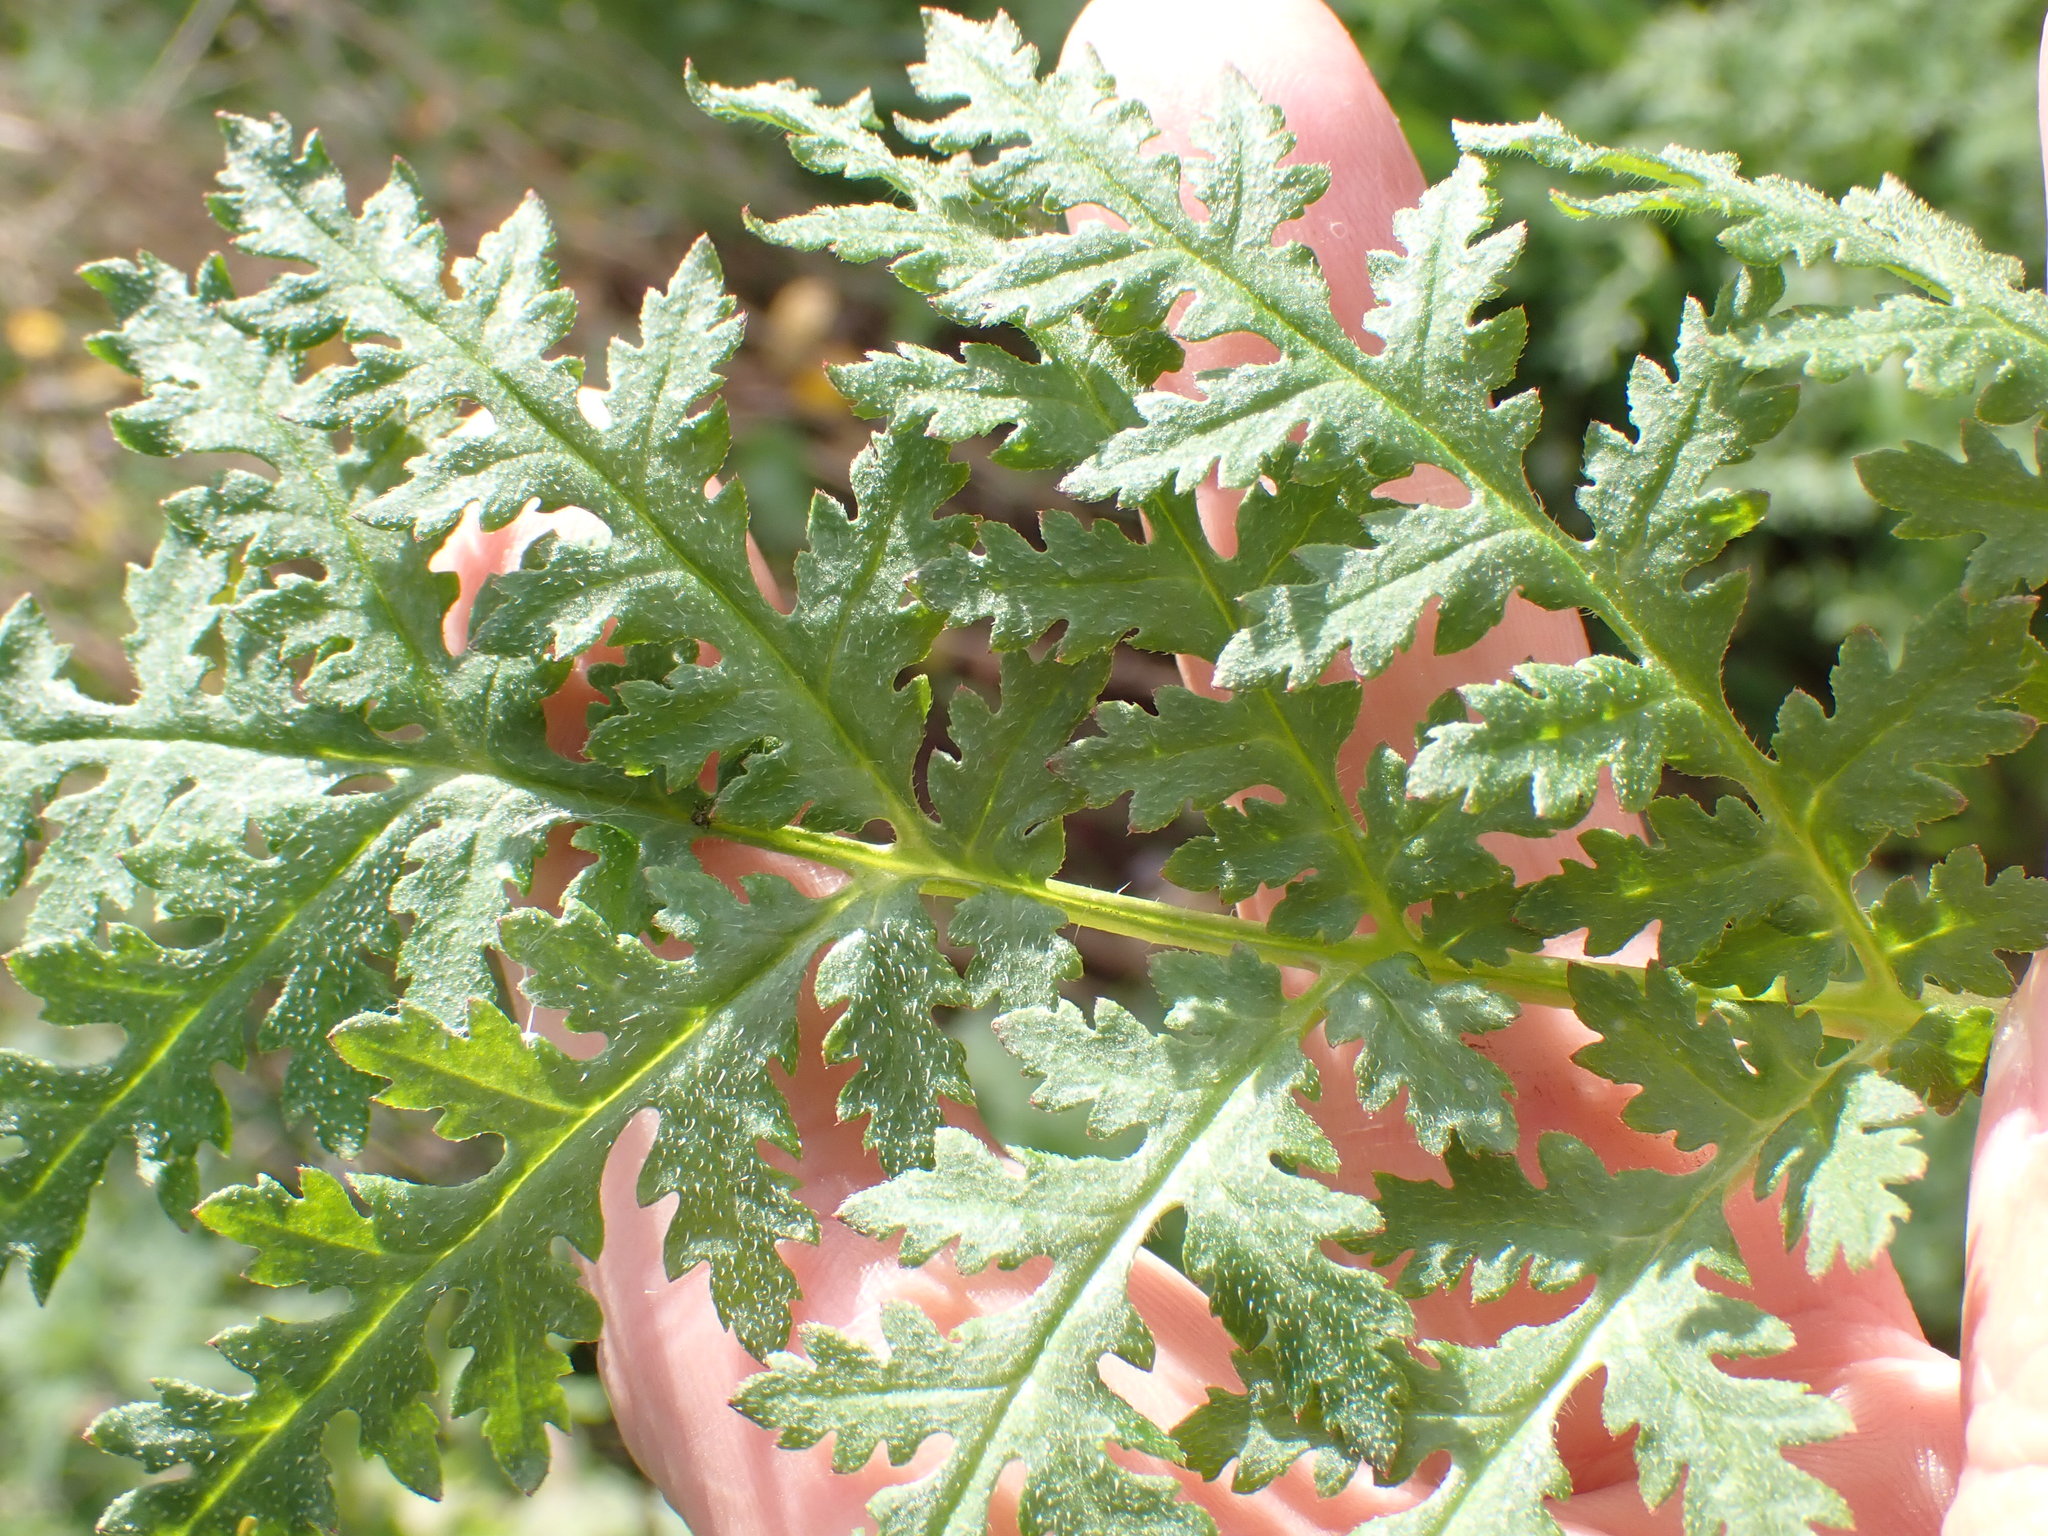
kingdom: Plantae
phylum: Tracheophyta
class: Magnoliopsida
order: Boraginales
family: Hydrophyllaceae
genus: Phacelia
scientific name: Phacelia tanacetifolia
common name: Phacelia
